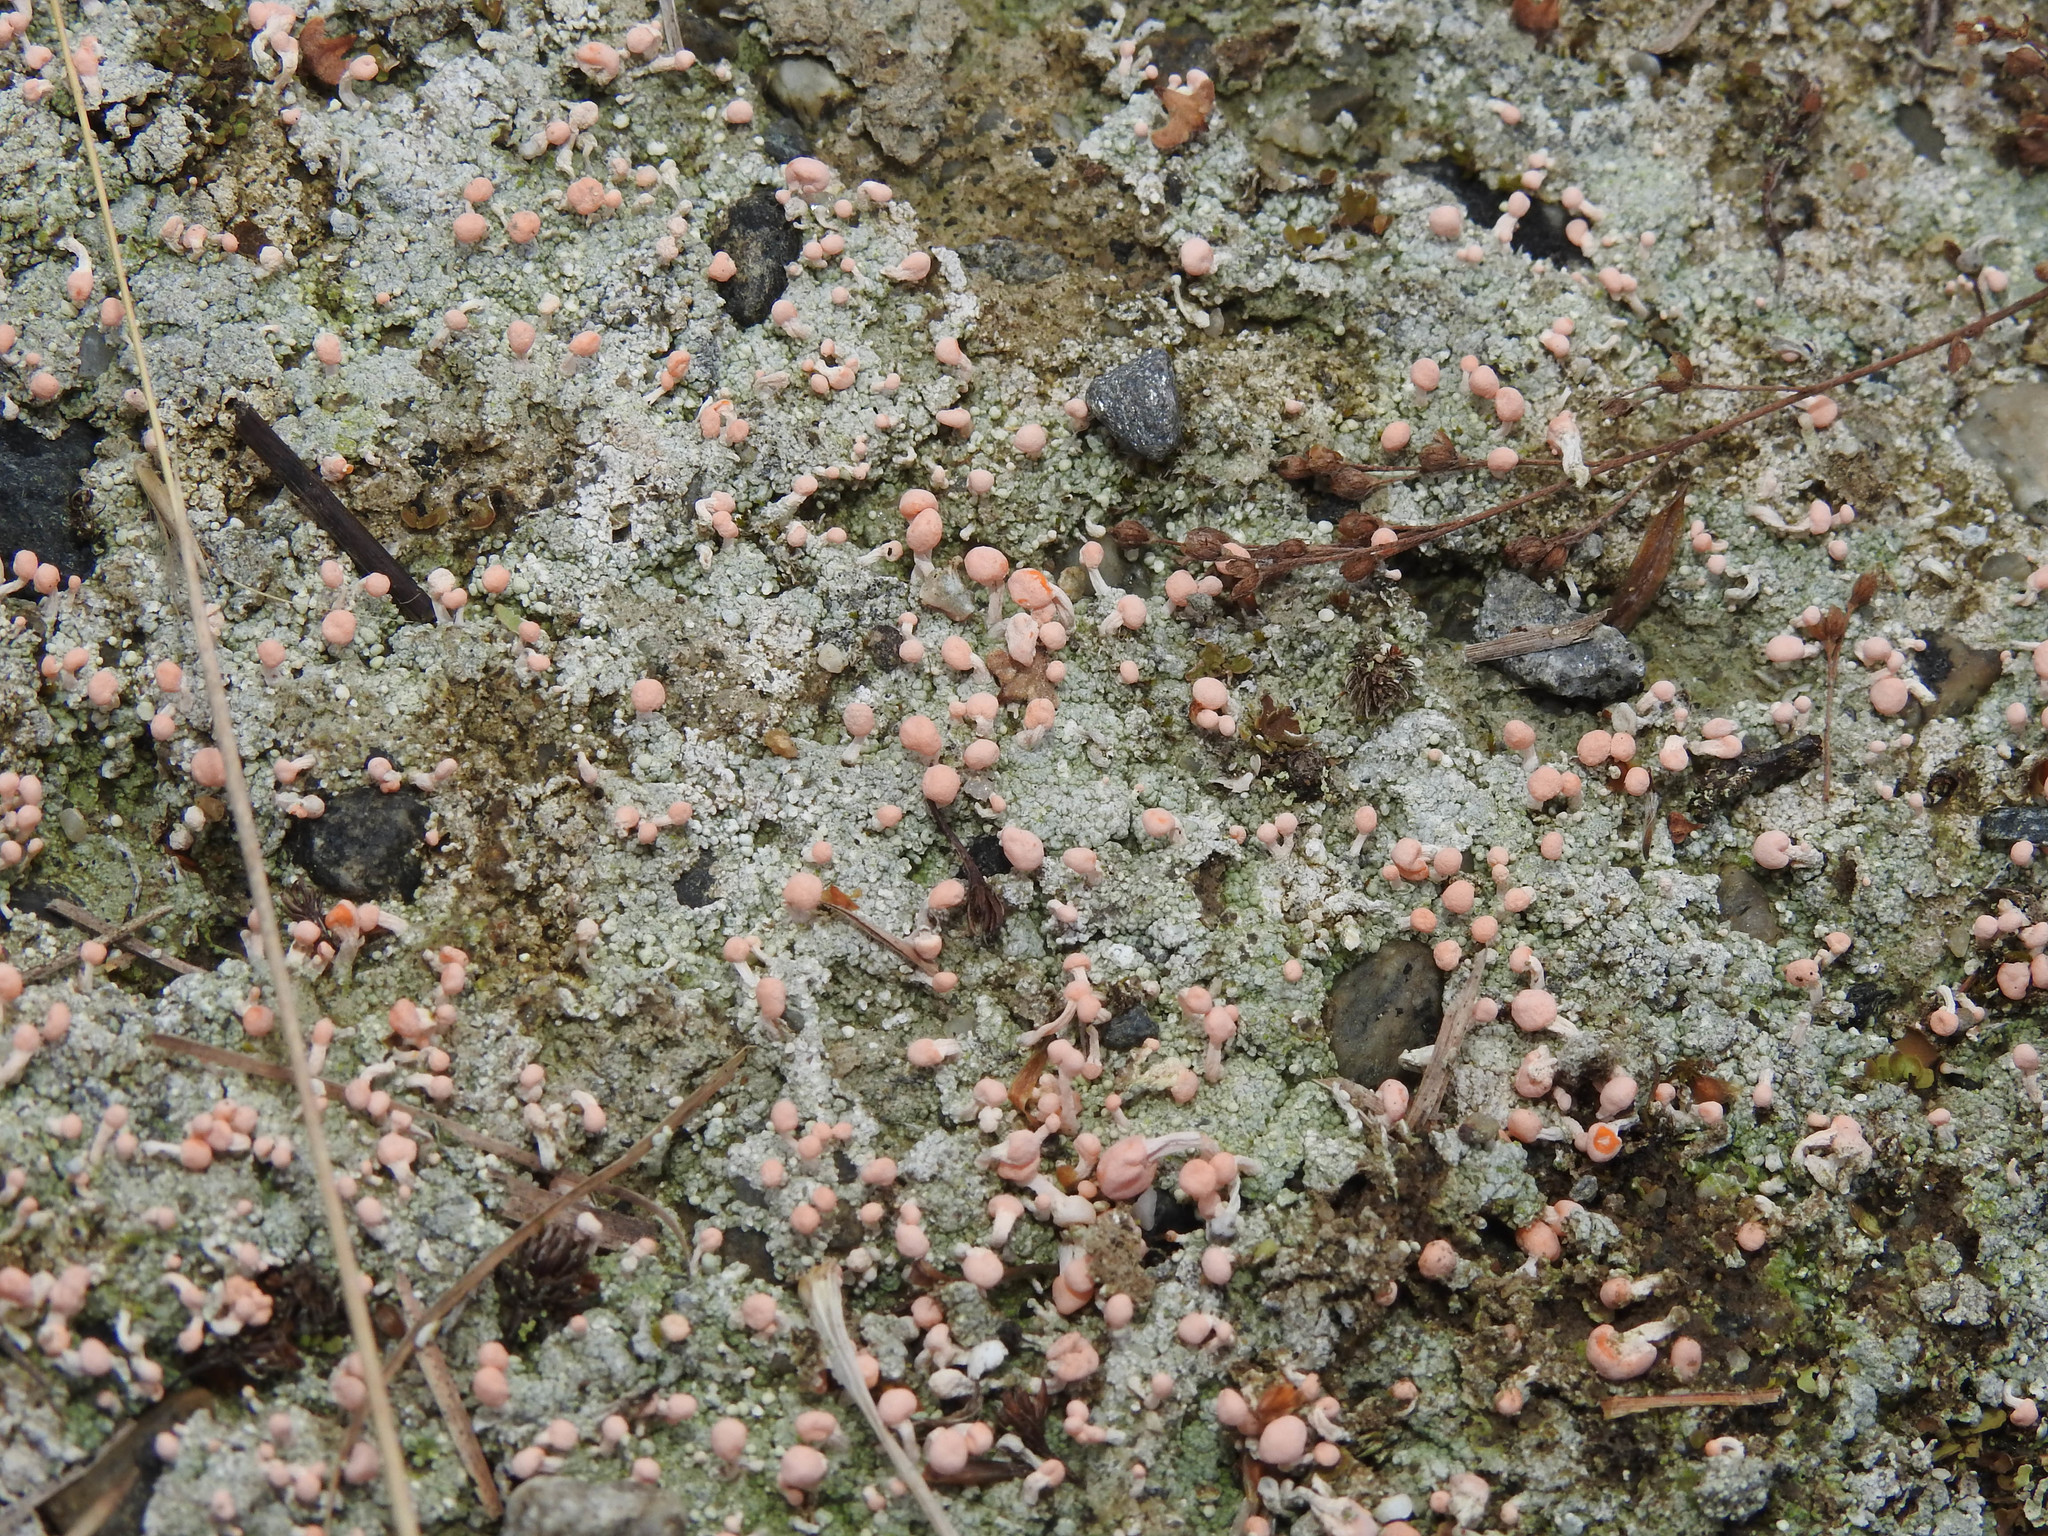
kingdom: Fungi
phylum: Ascomycota
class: Lecanoromycetes
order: Pertusariales
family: Icmadophilaceae
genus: Dibaeis
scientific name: Dibaeis baeomyces
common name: Pink earth lichen
